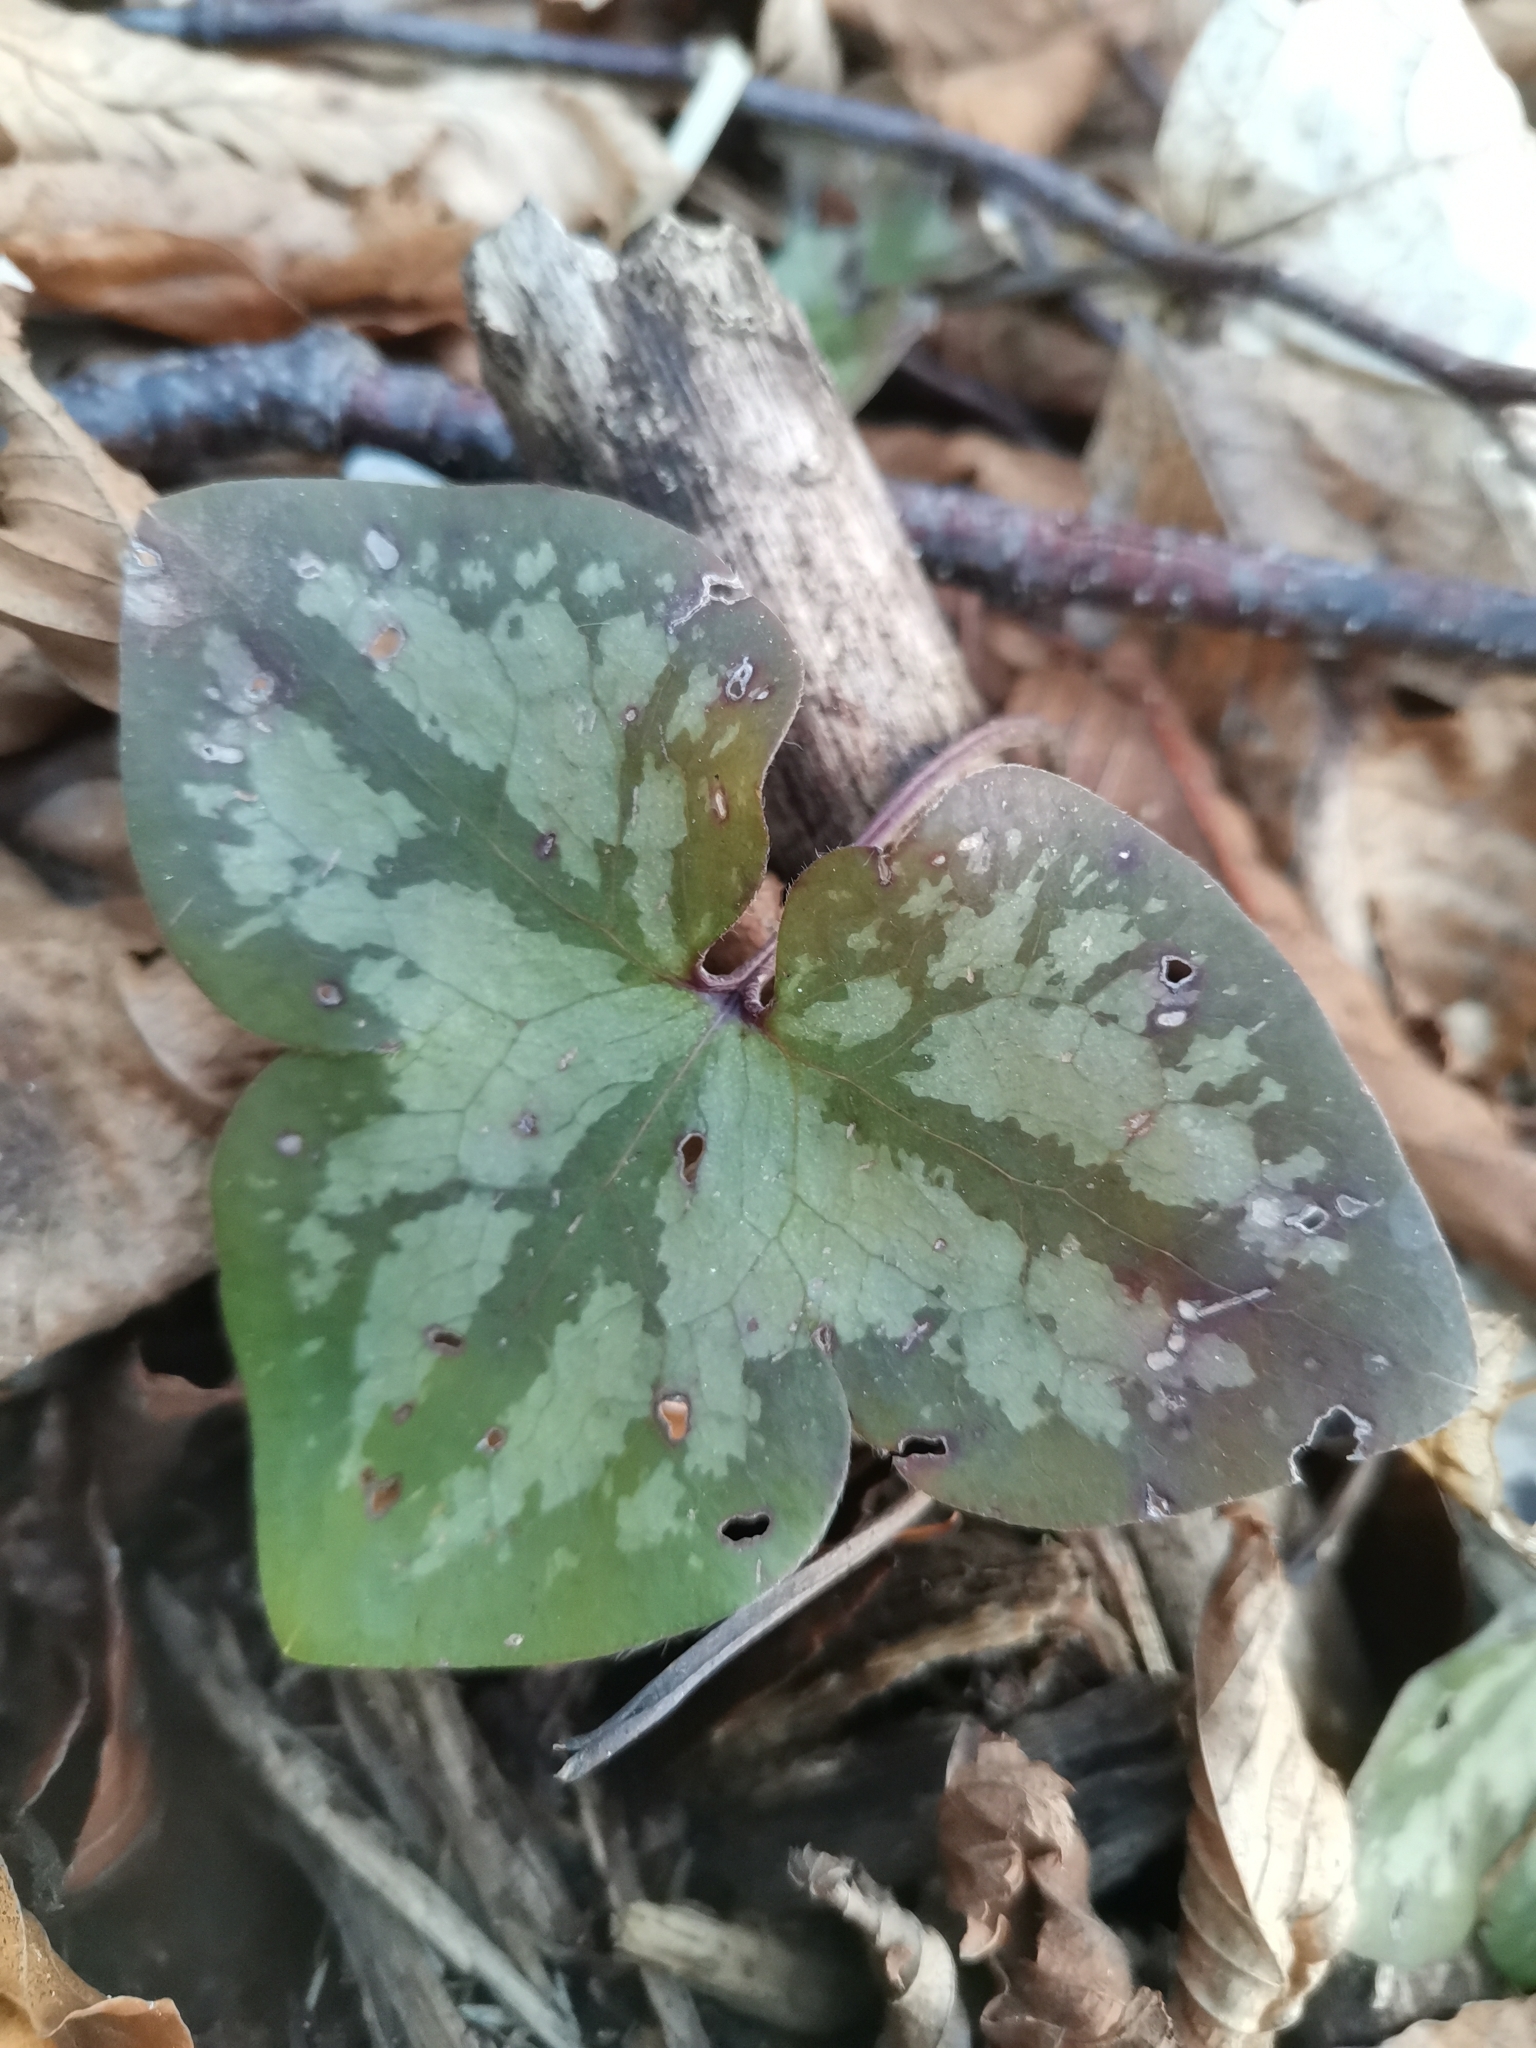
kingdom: Plantae
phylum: Tracheophyta
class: Magnoliopsida
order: Ranunculales
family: Ranunculaceae
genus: Hepatica
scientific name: Hepatica nobilis
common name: Liverleaf
